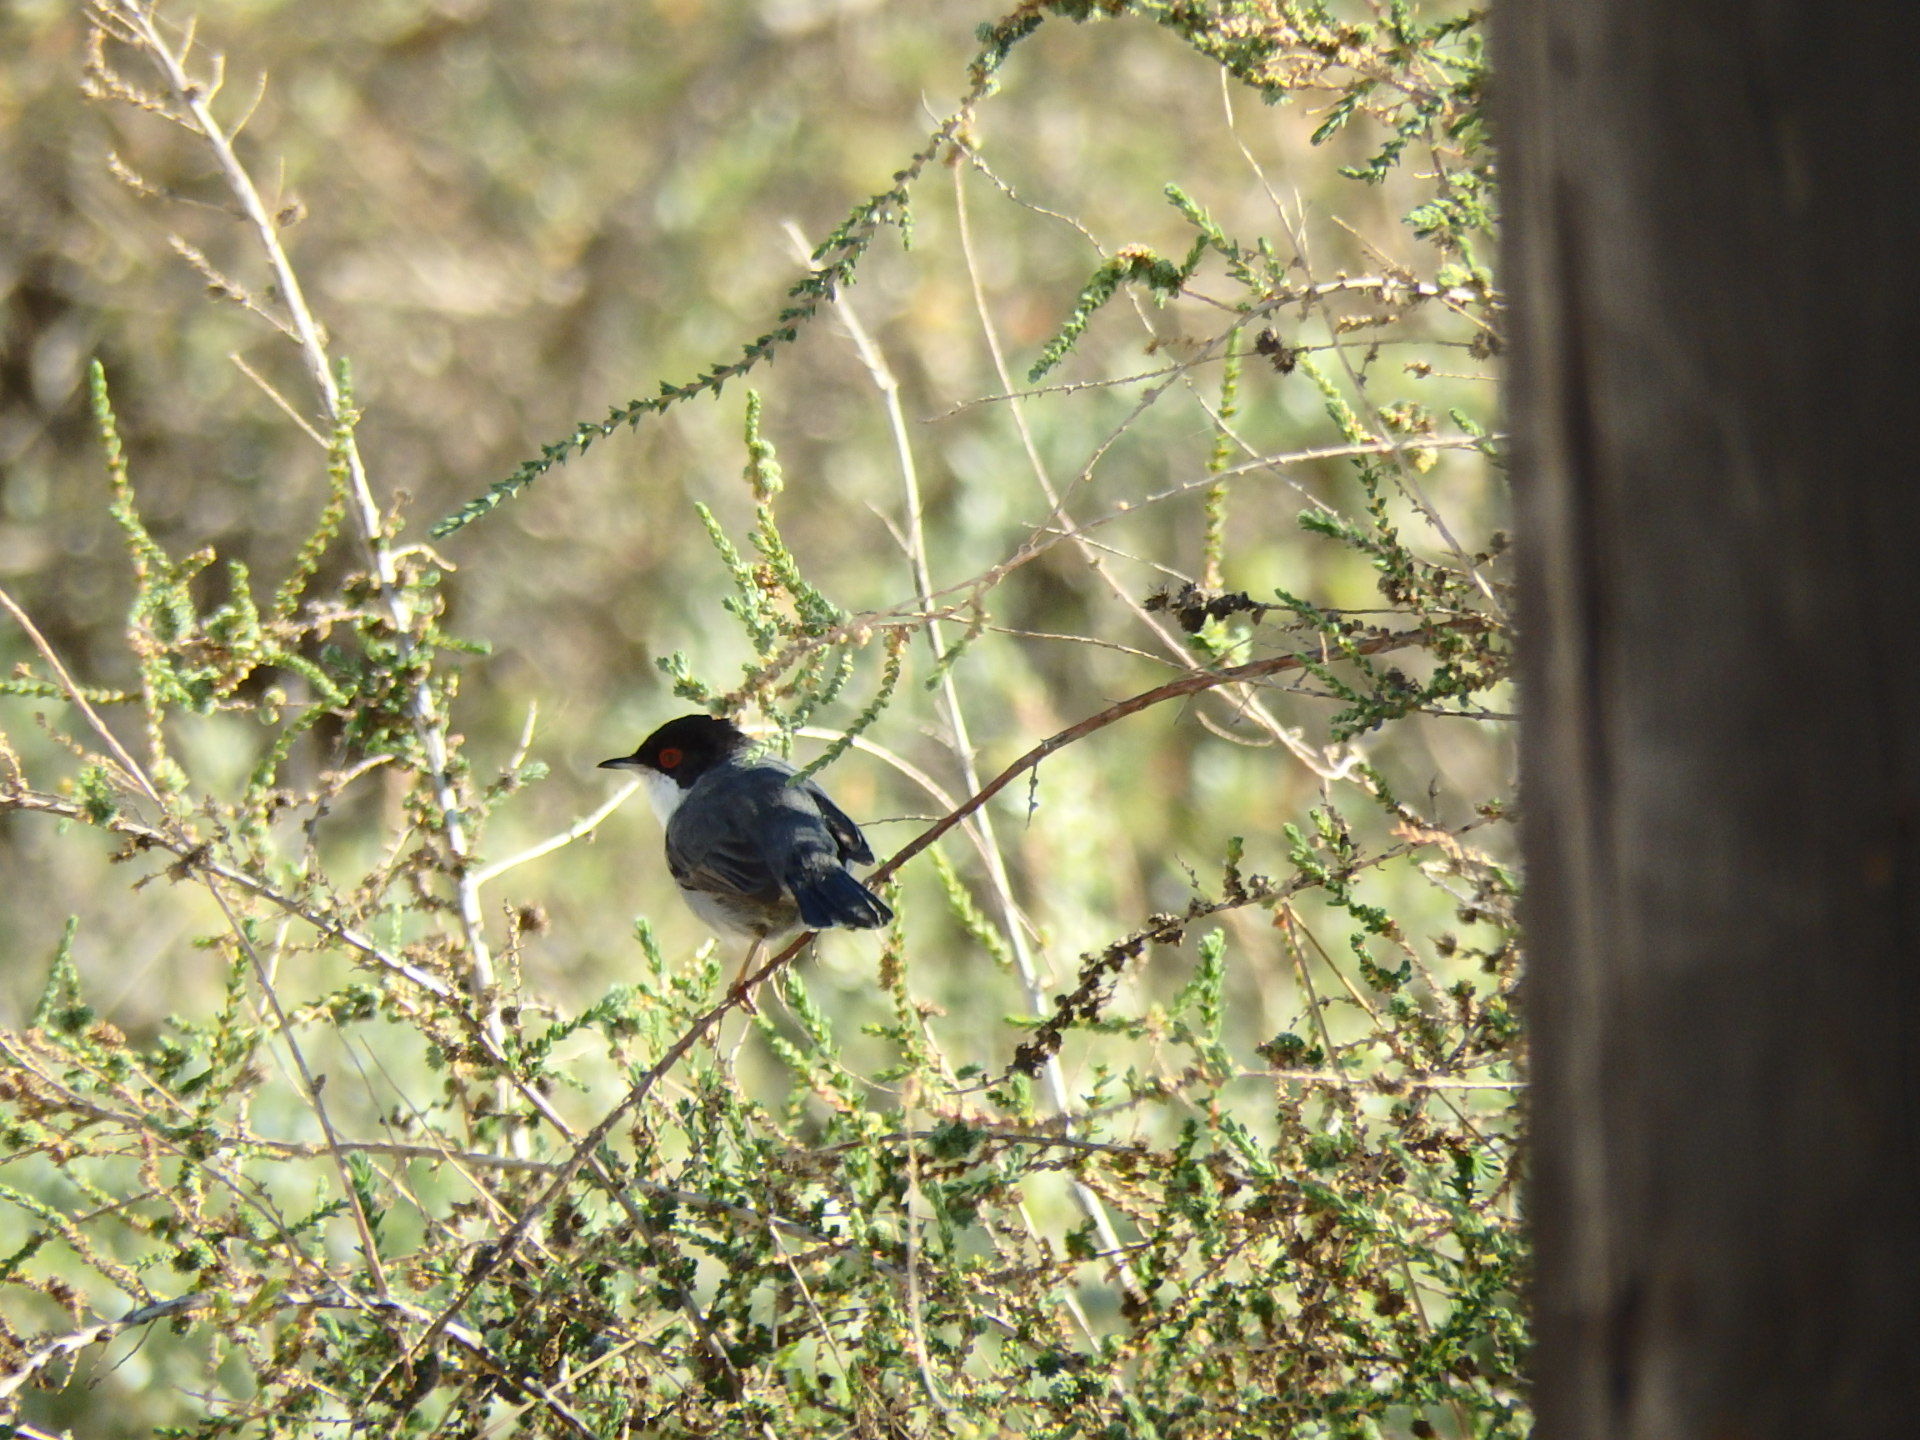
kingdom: Animalia
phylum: Chordata
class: Aves
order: Passeriformes
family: Sylviidae
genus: Curruca
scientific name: Curruca melanocephala
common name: Sardinian warbler
